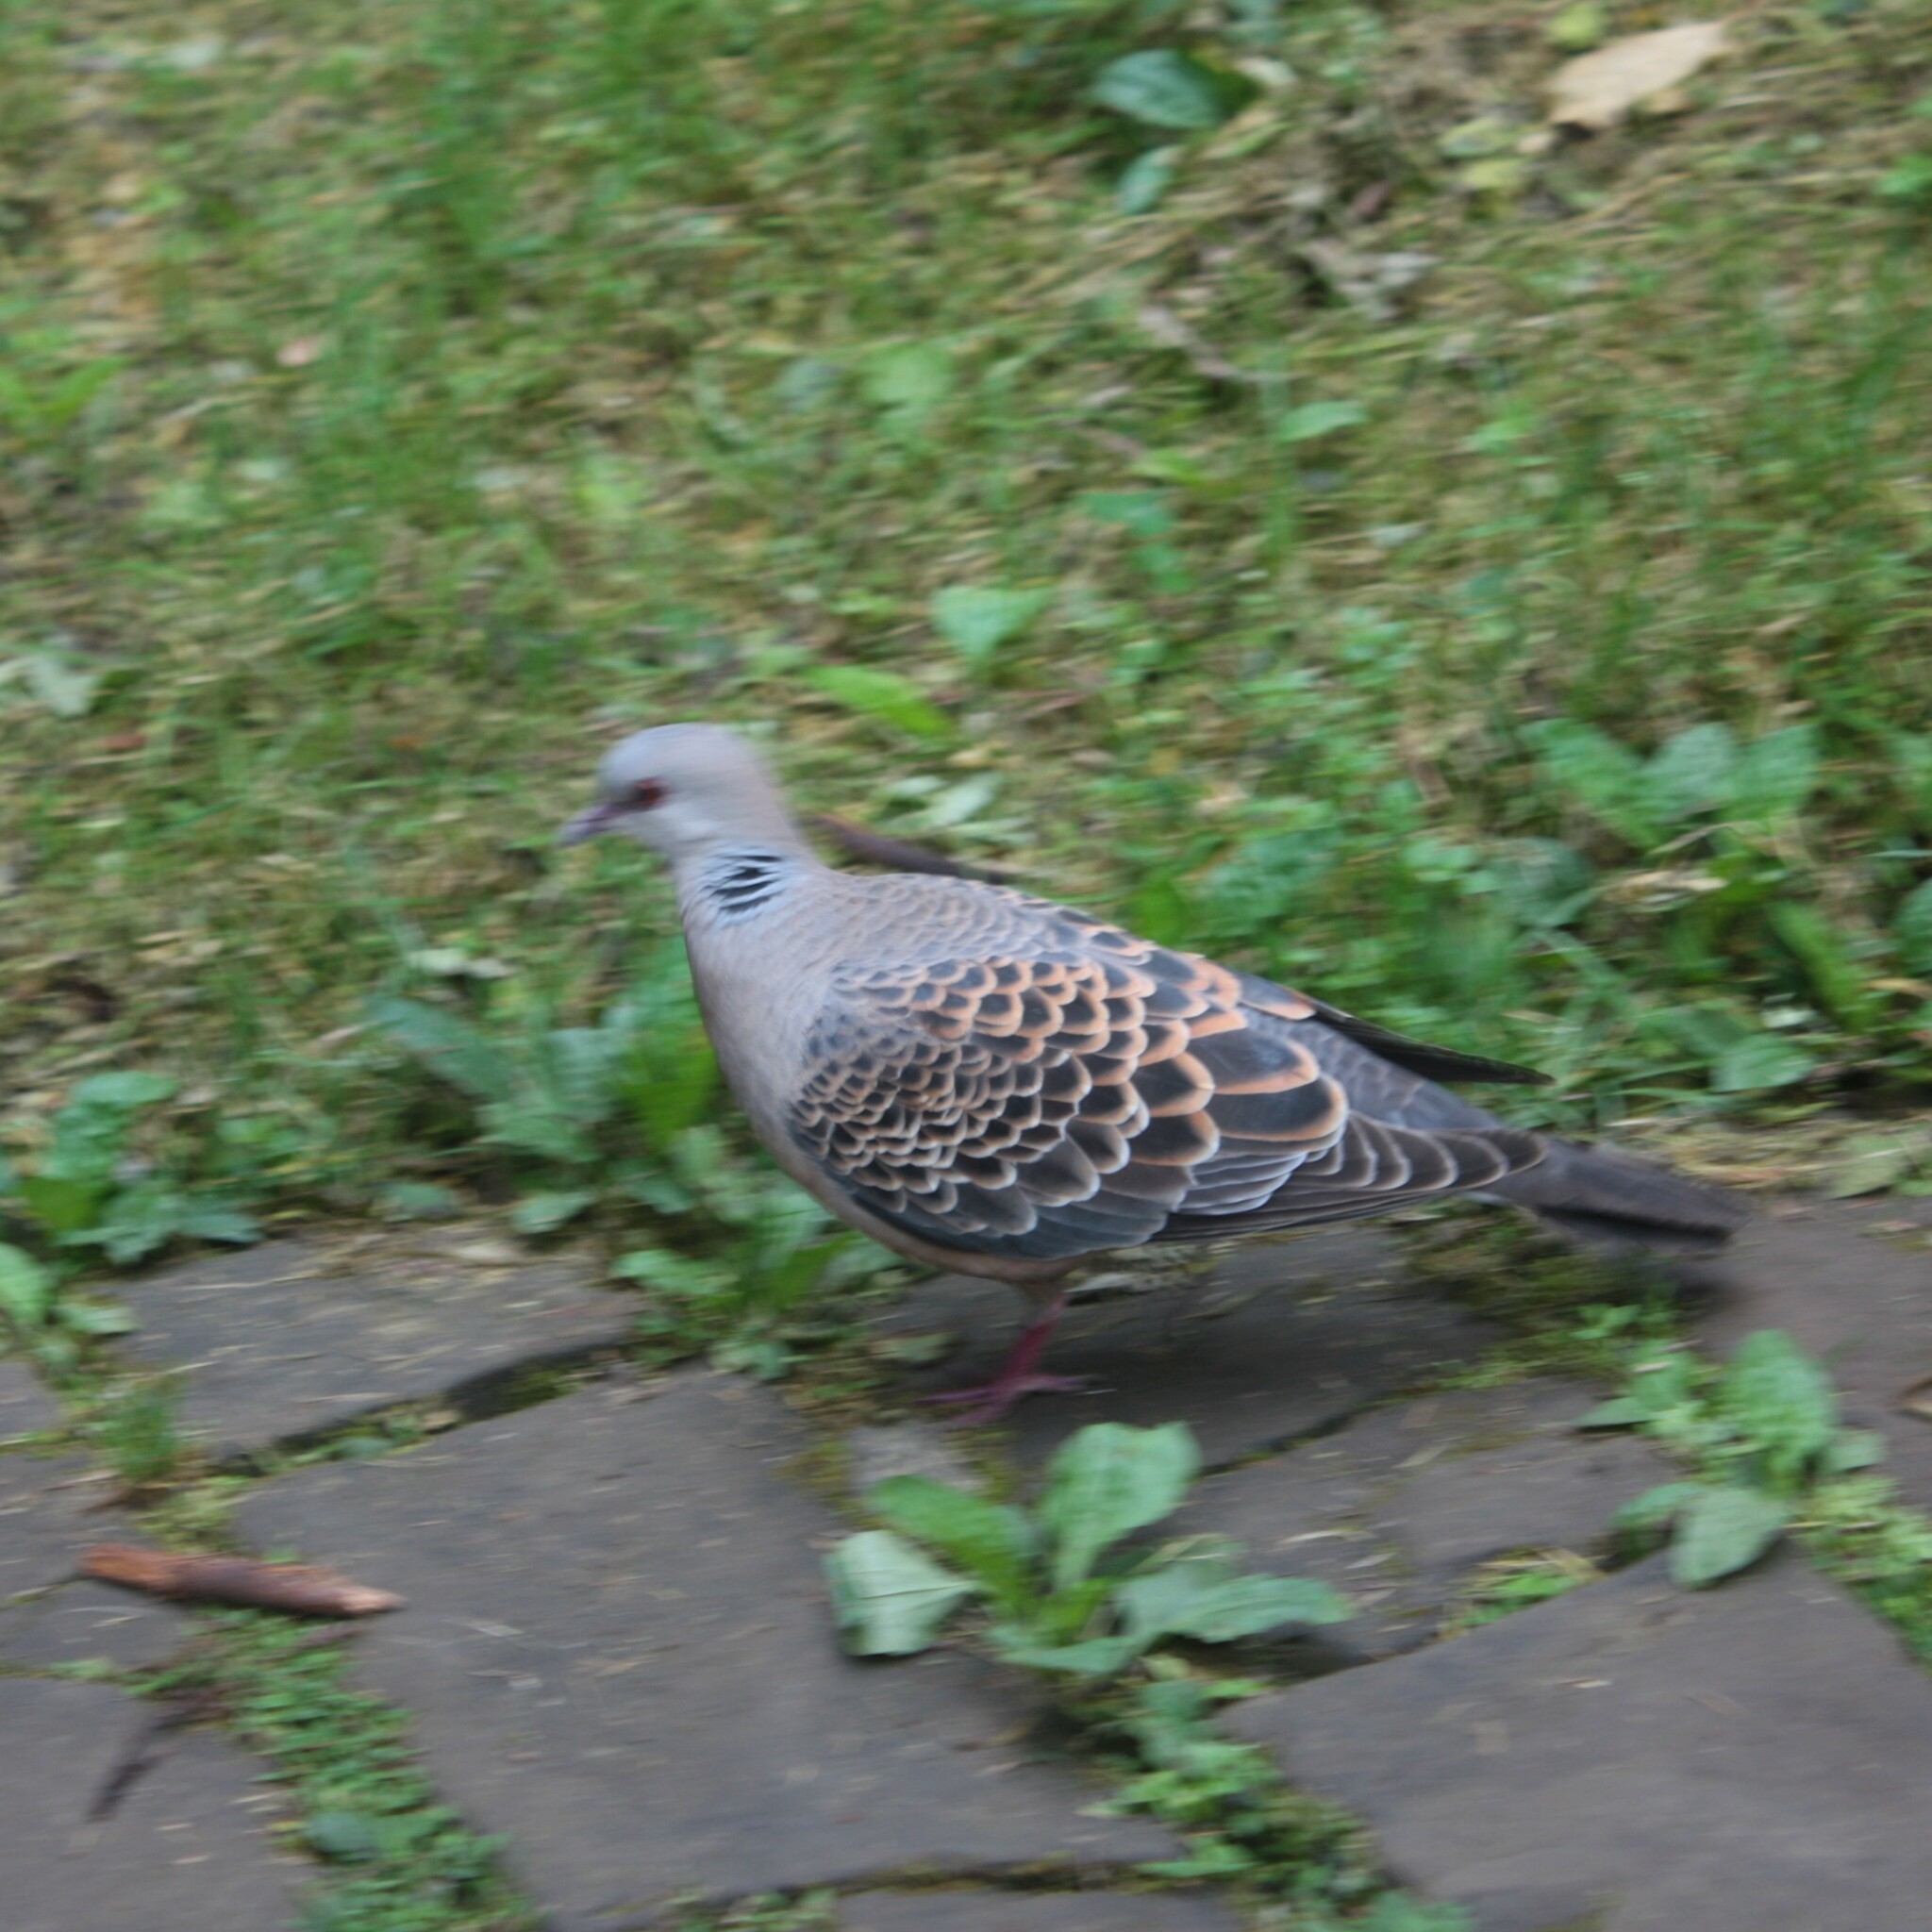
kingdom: Animalia
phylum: Chordata
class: Aves
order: Columbiformes
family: Columbidae
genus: Streptopelia
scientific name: Streptopelia orientalis
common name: Oriental turtle dove
